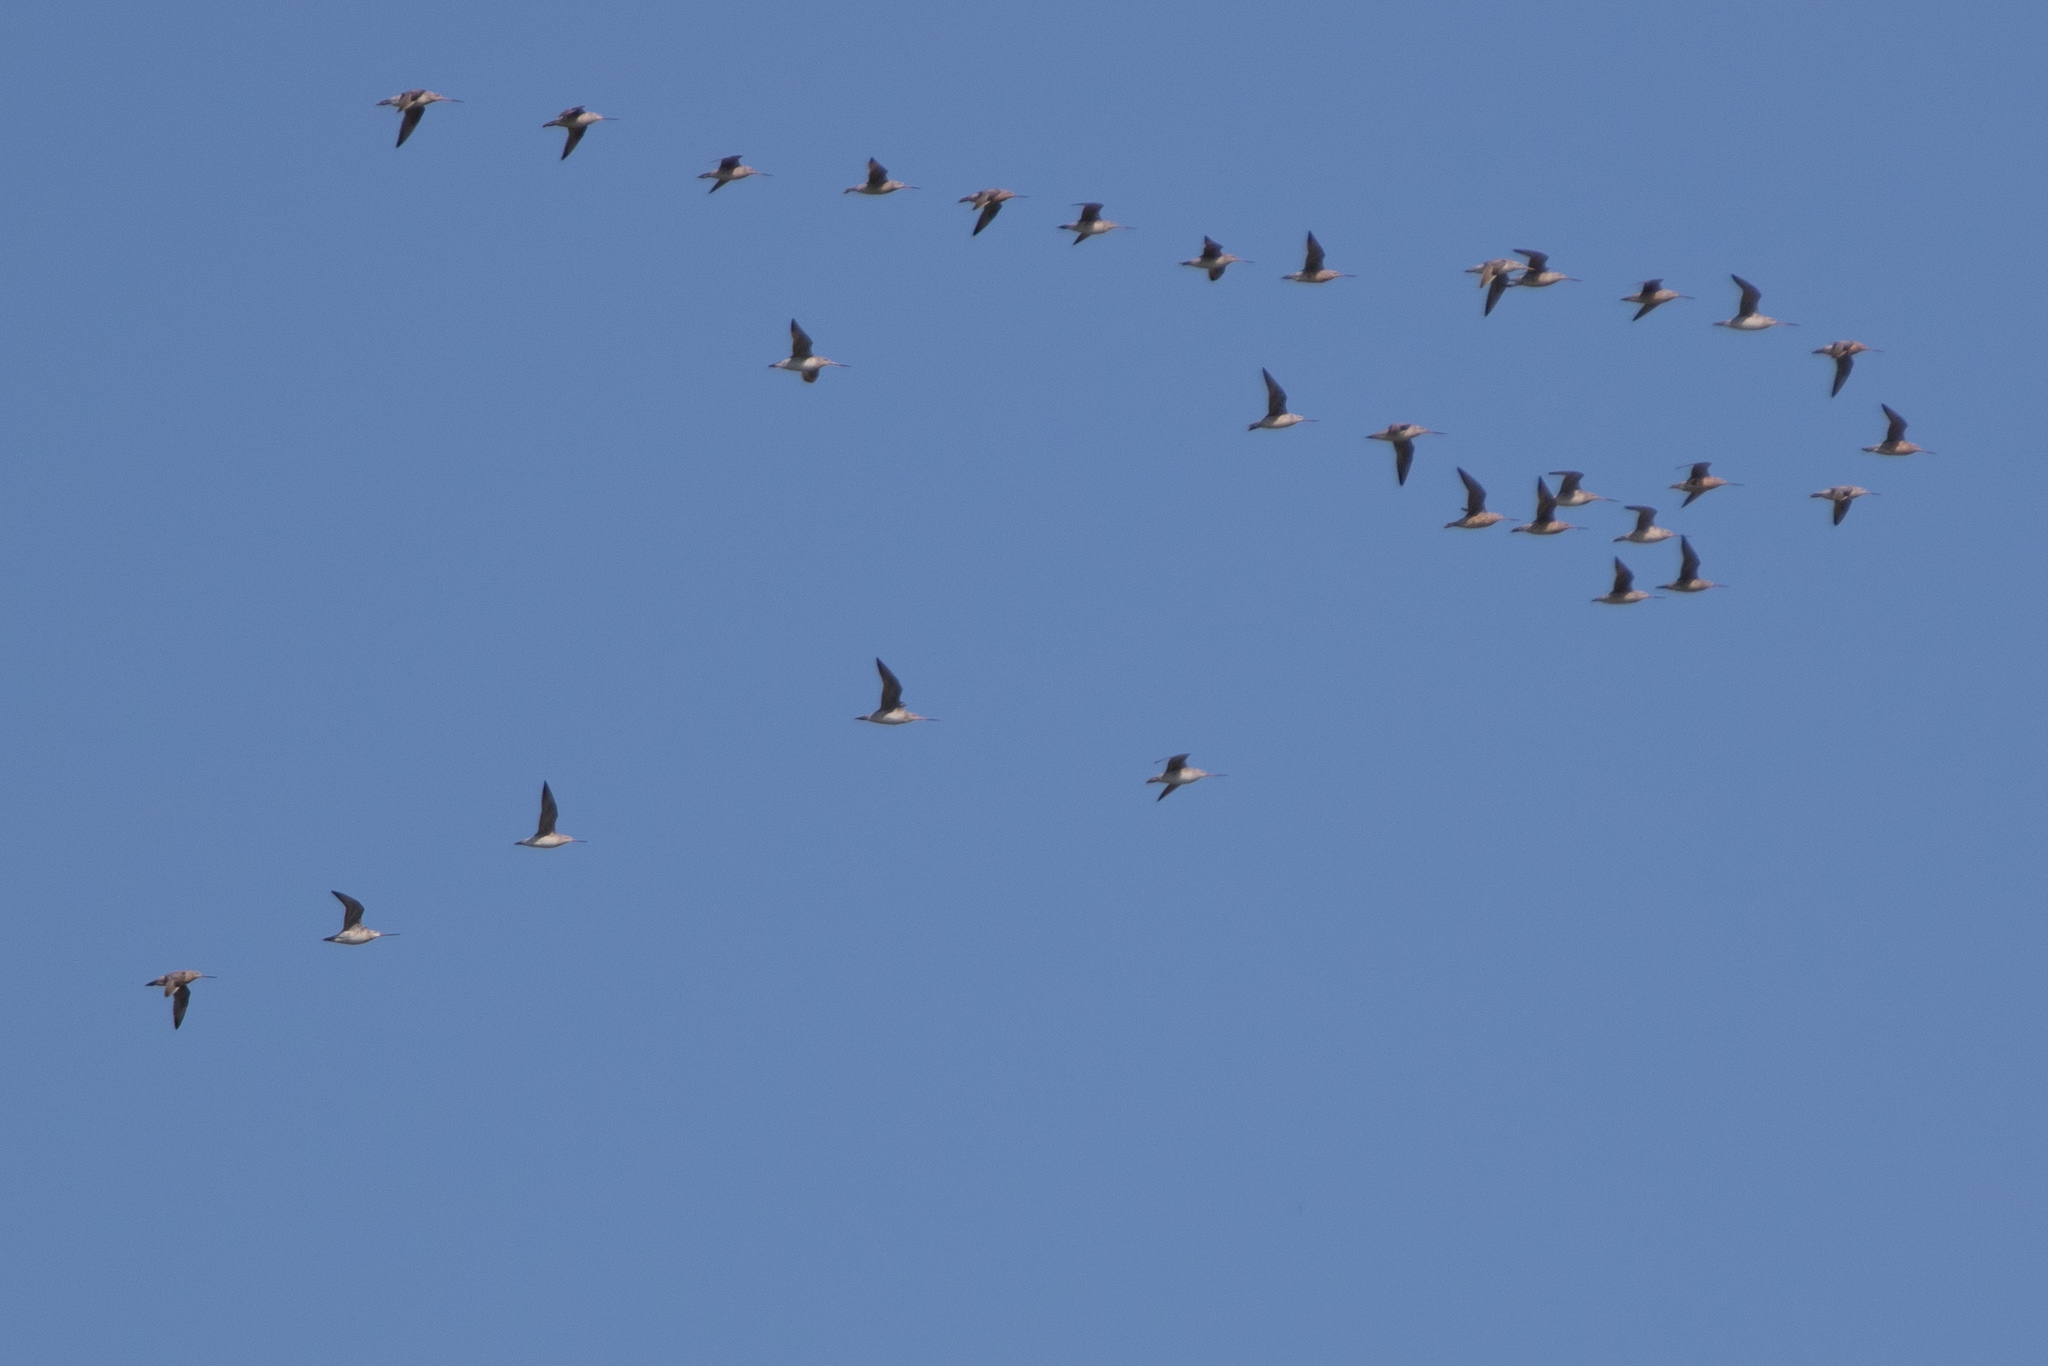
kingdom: Animalia
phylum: Chordata
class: Aves
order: Charadriiformes
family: Scolopacidae
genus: Limosa
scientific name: Limosa lapponica
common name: Bar-tailed godwit
